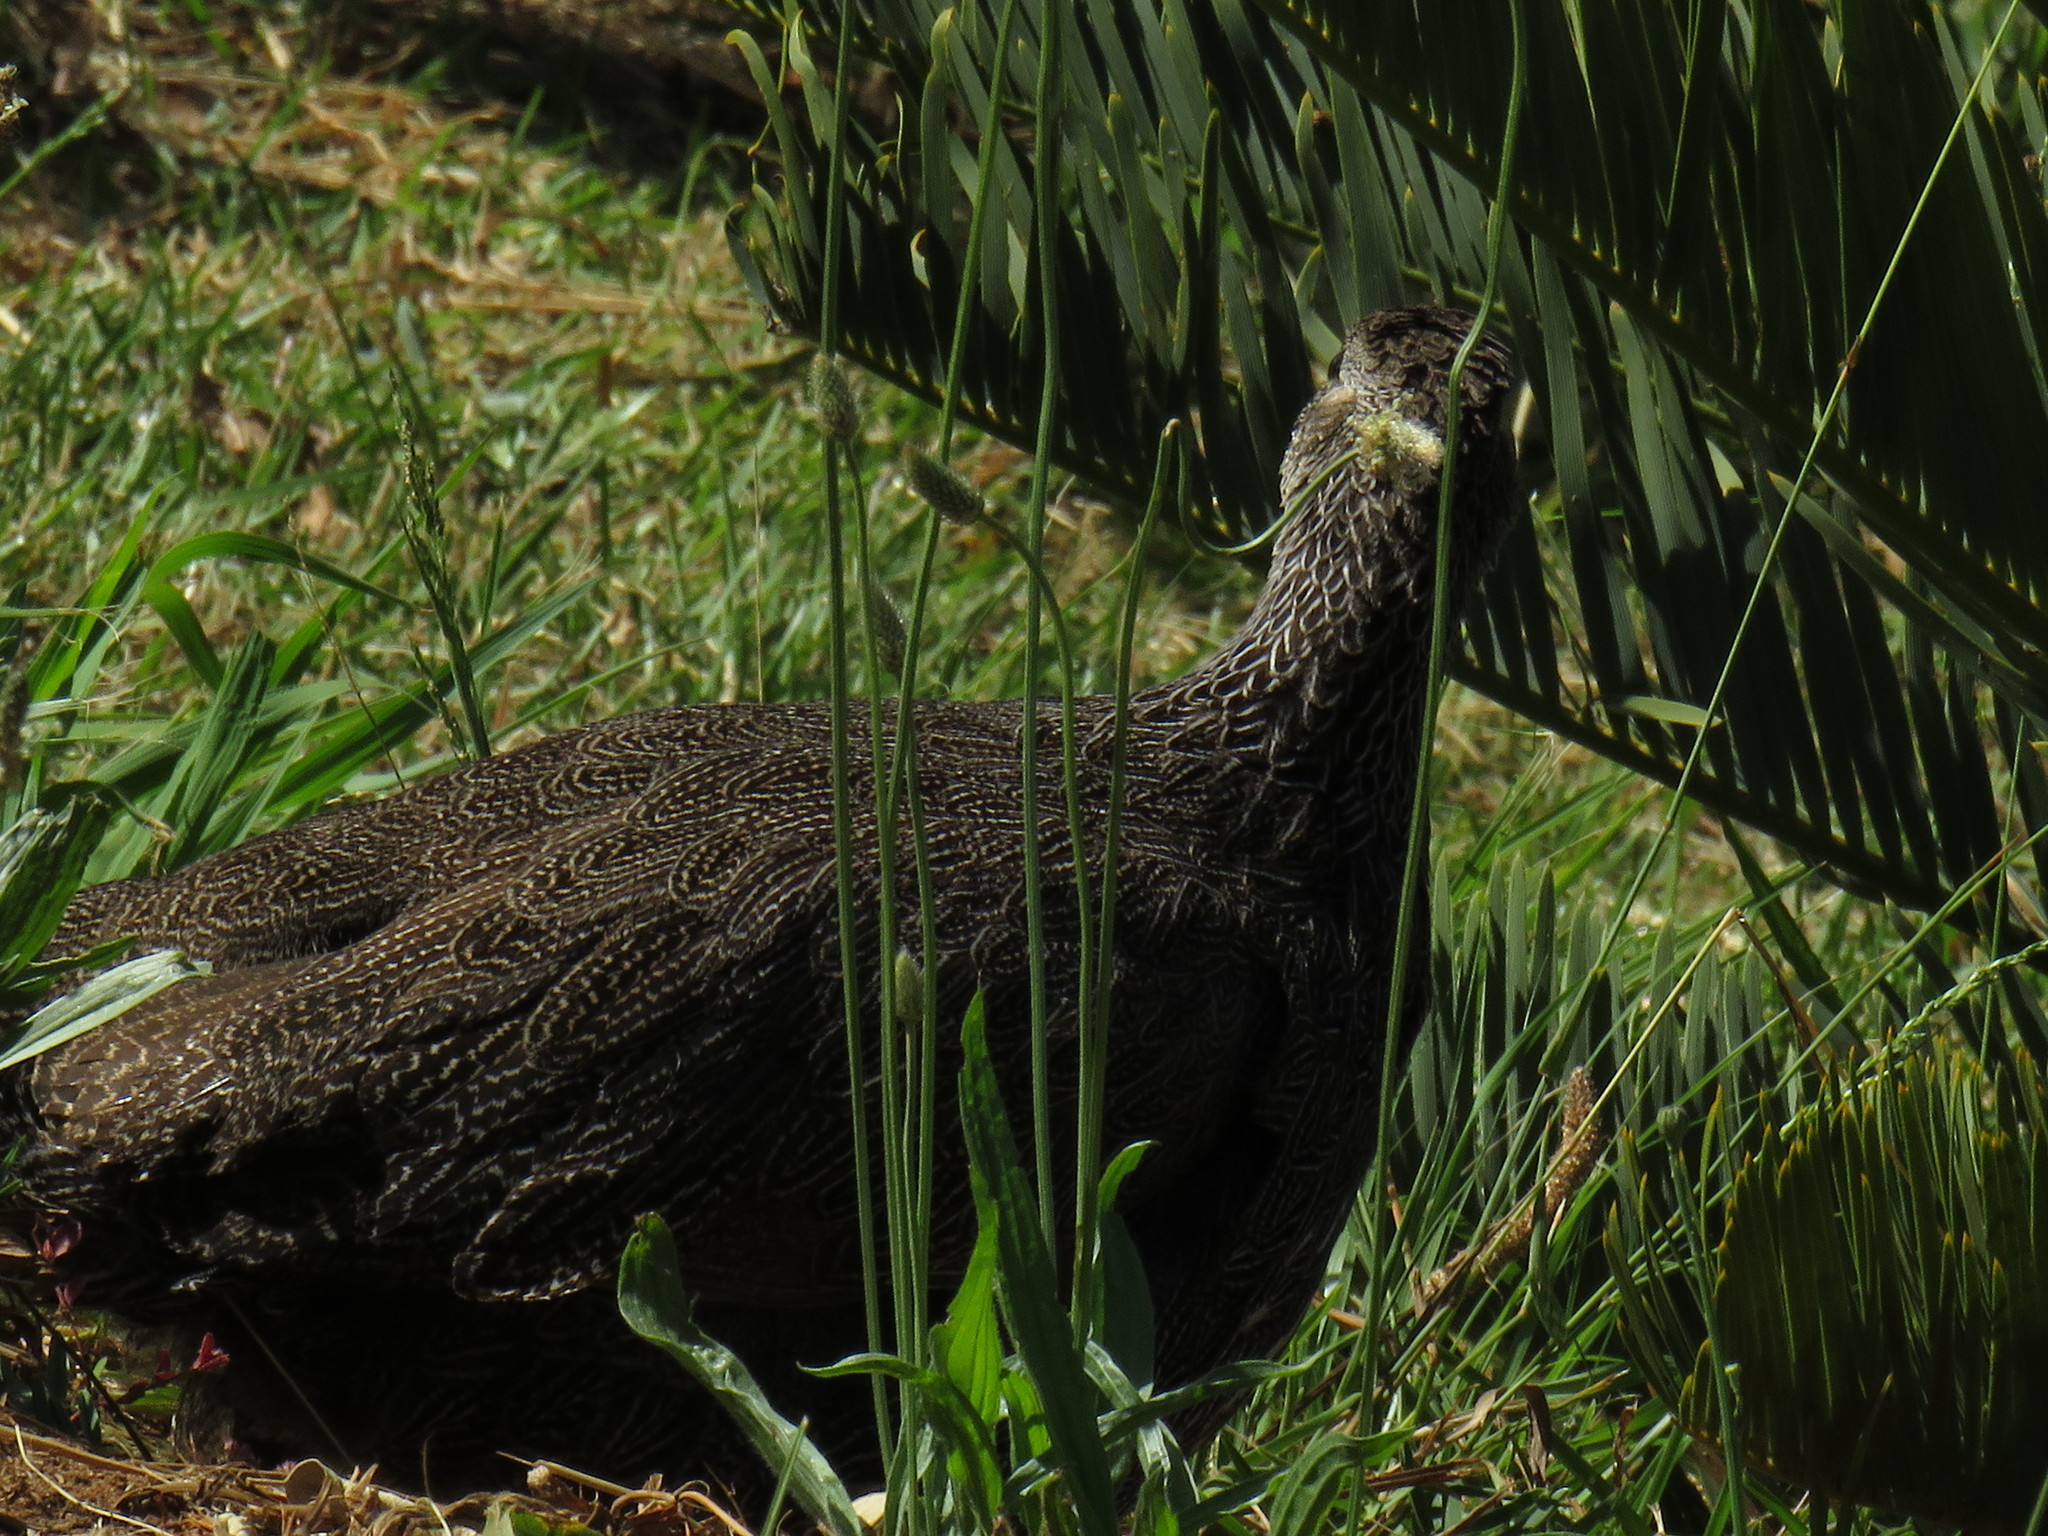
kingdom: Plantae
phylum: Tracheophyta
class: Magnoliopsida
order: Lamiales
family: Plantaginaceae
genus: Plantago
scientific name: Plantago lanceolata
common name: Ribwort plantain
